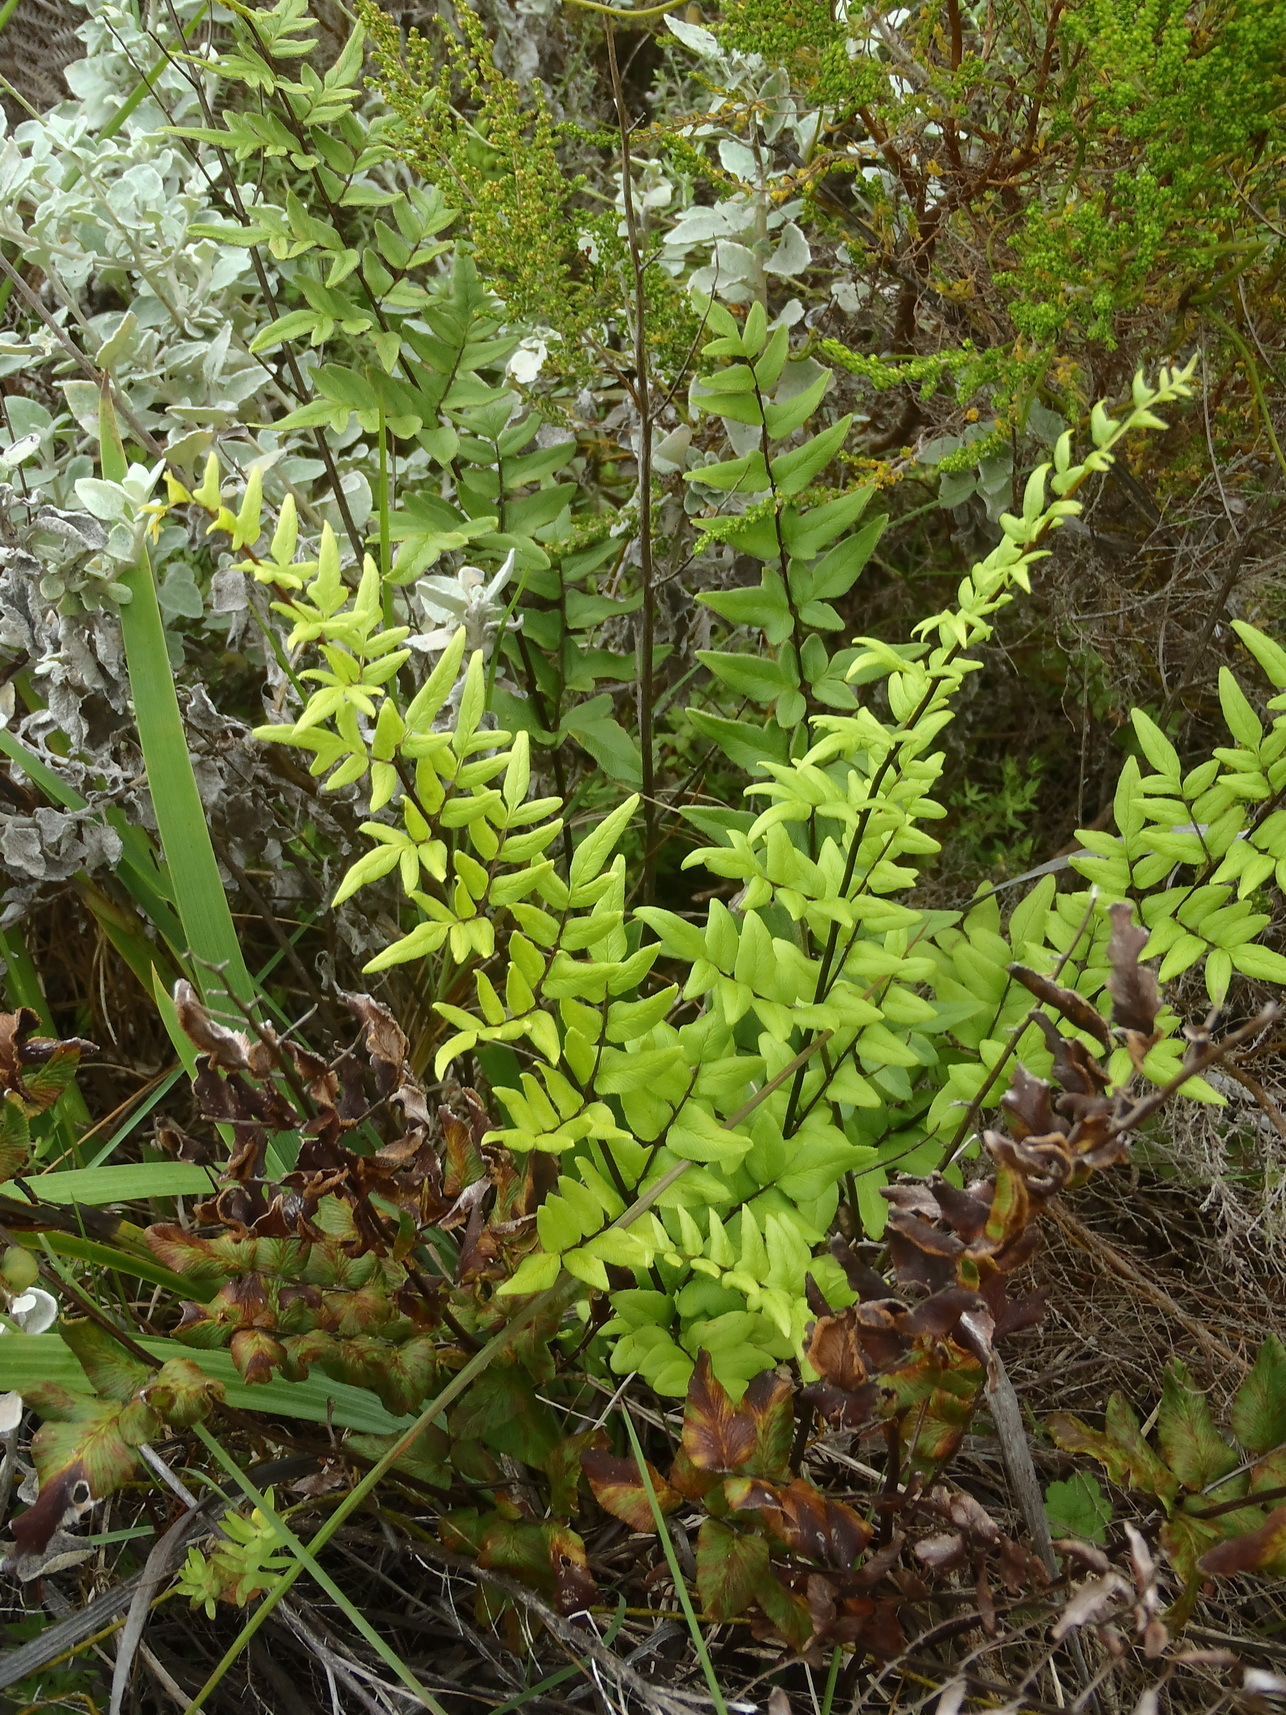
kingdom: Plantae
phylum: Tracheophyta
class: Polypodiopsida
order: Polypodiales
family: Pteridaceae
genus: Cheilanthes
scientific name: Cheilanthes viridis
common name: Green cliffbrake
